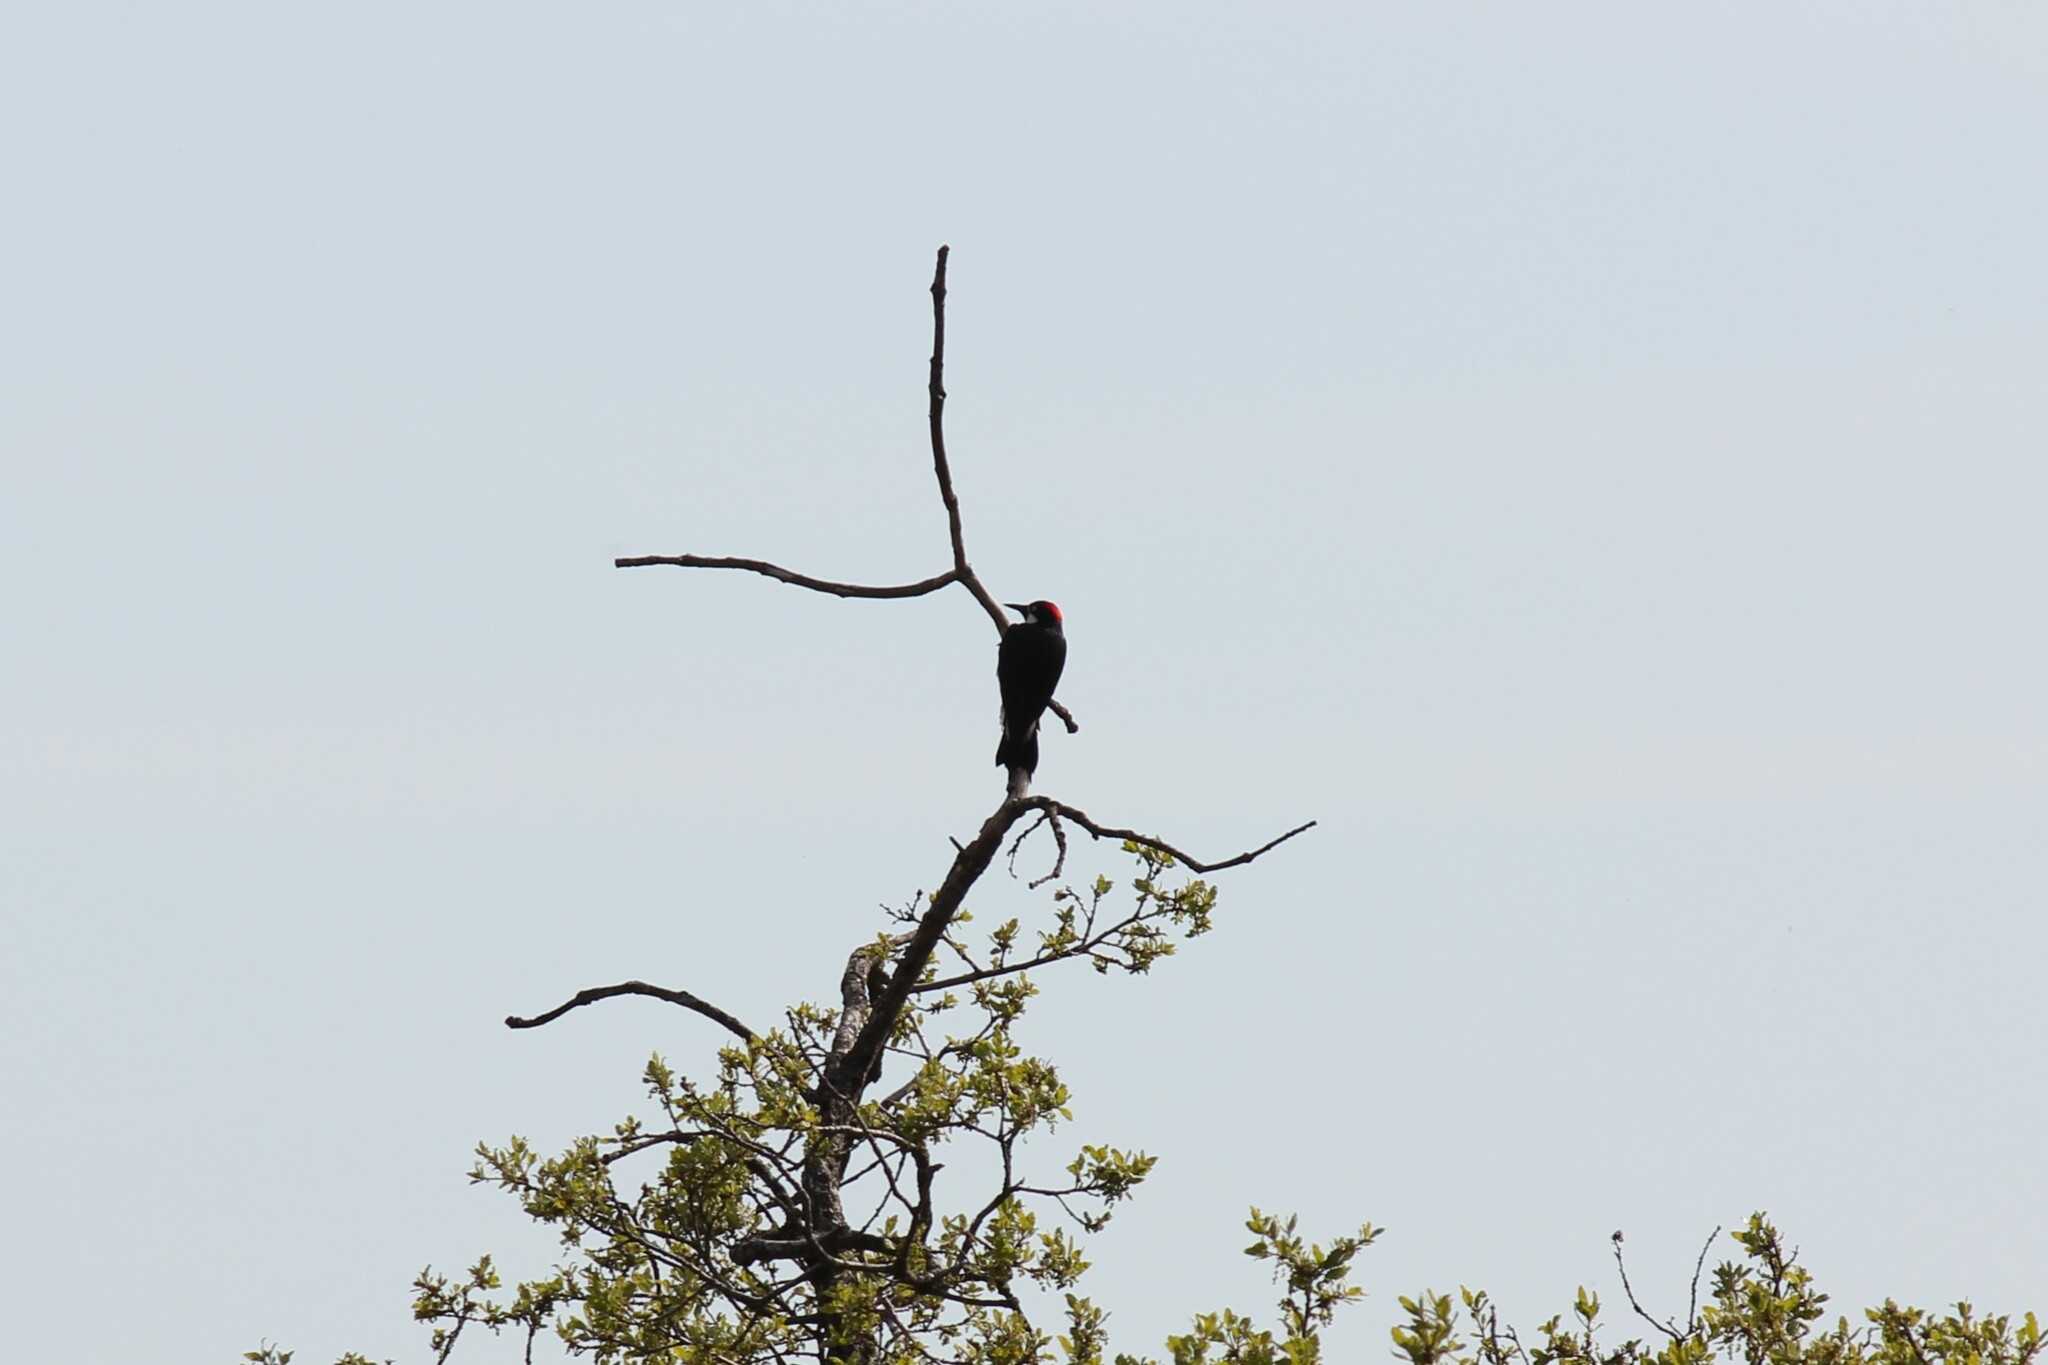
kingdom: Animalia
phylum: Chordata
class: Aves
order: Piciformes
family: Picidae
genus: Melanerpes
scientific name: Melanerpes formicivorus
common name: Acorn woodpecker
